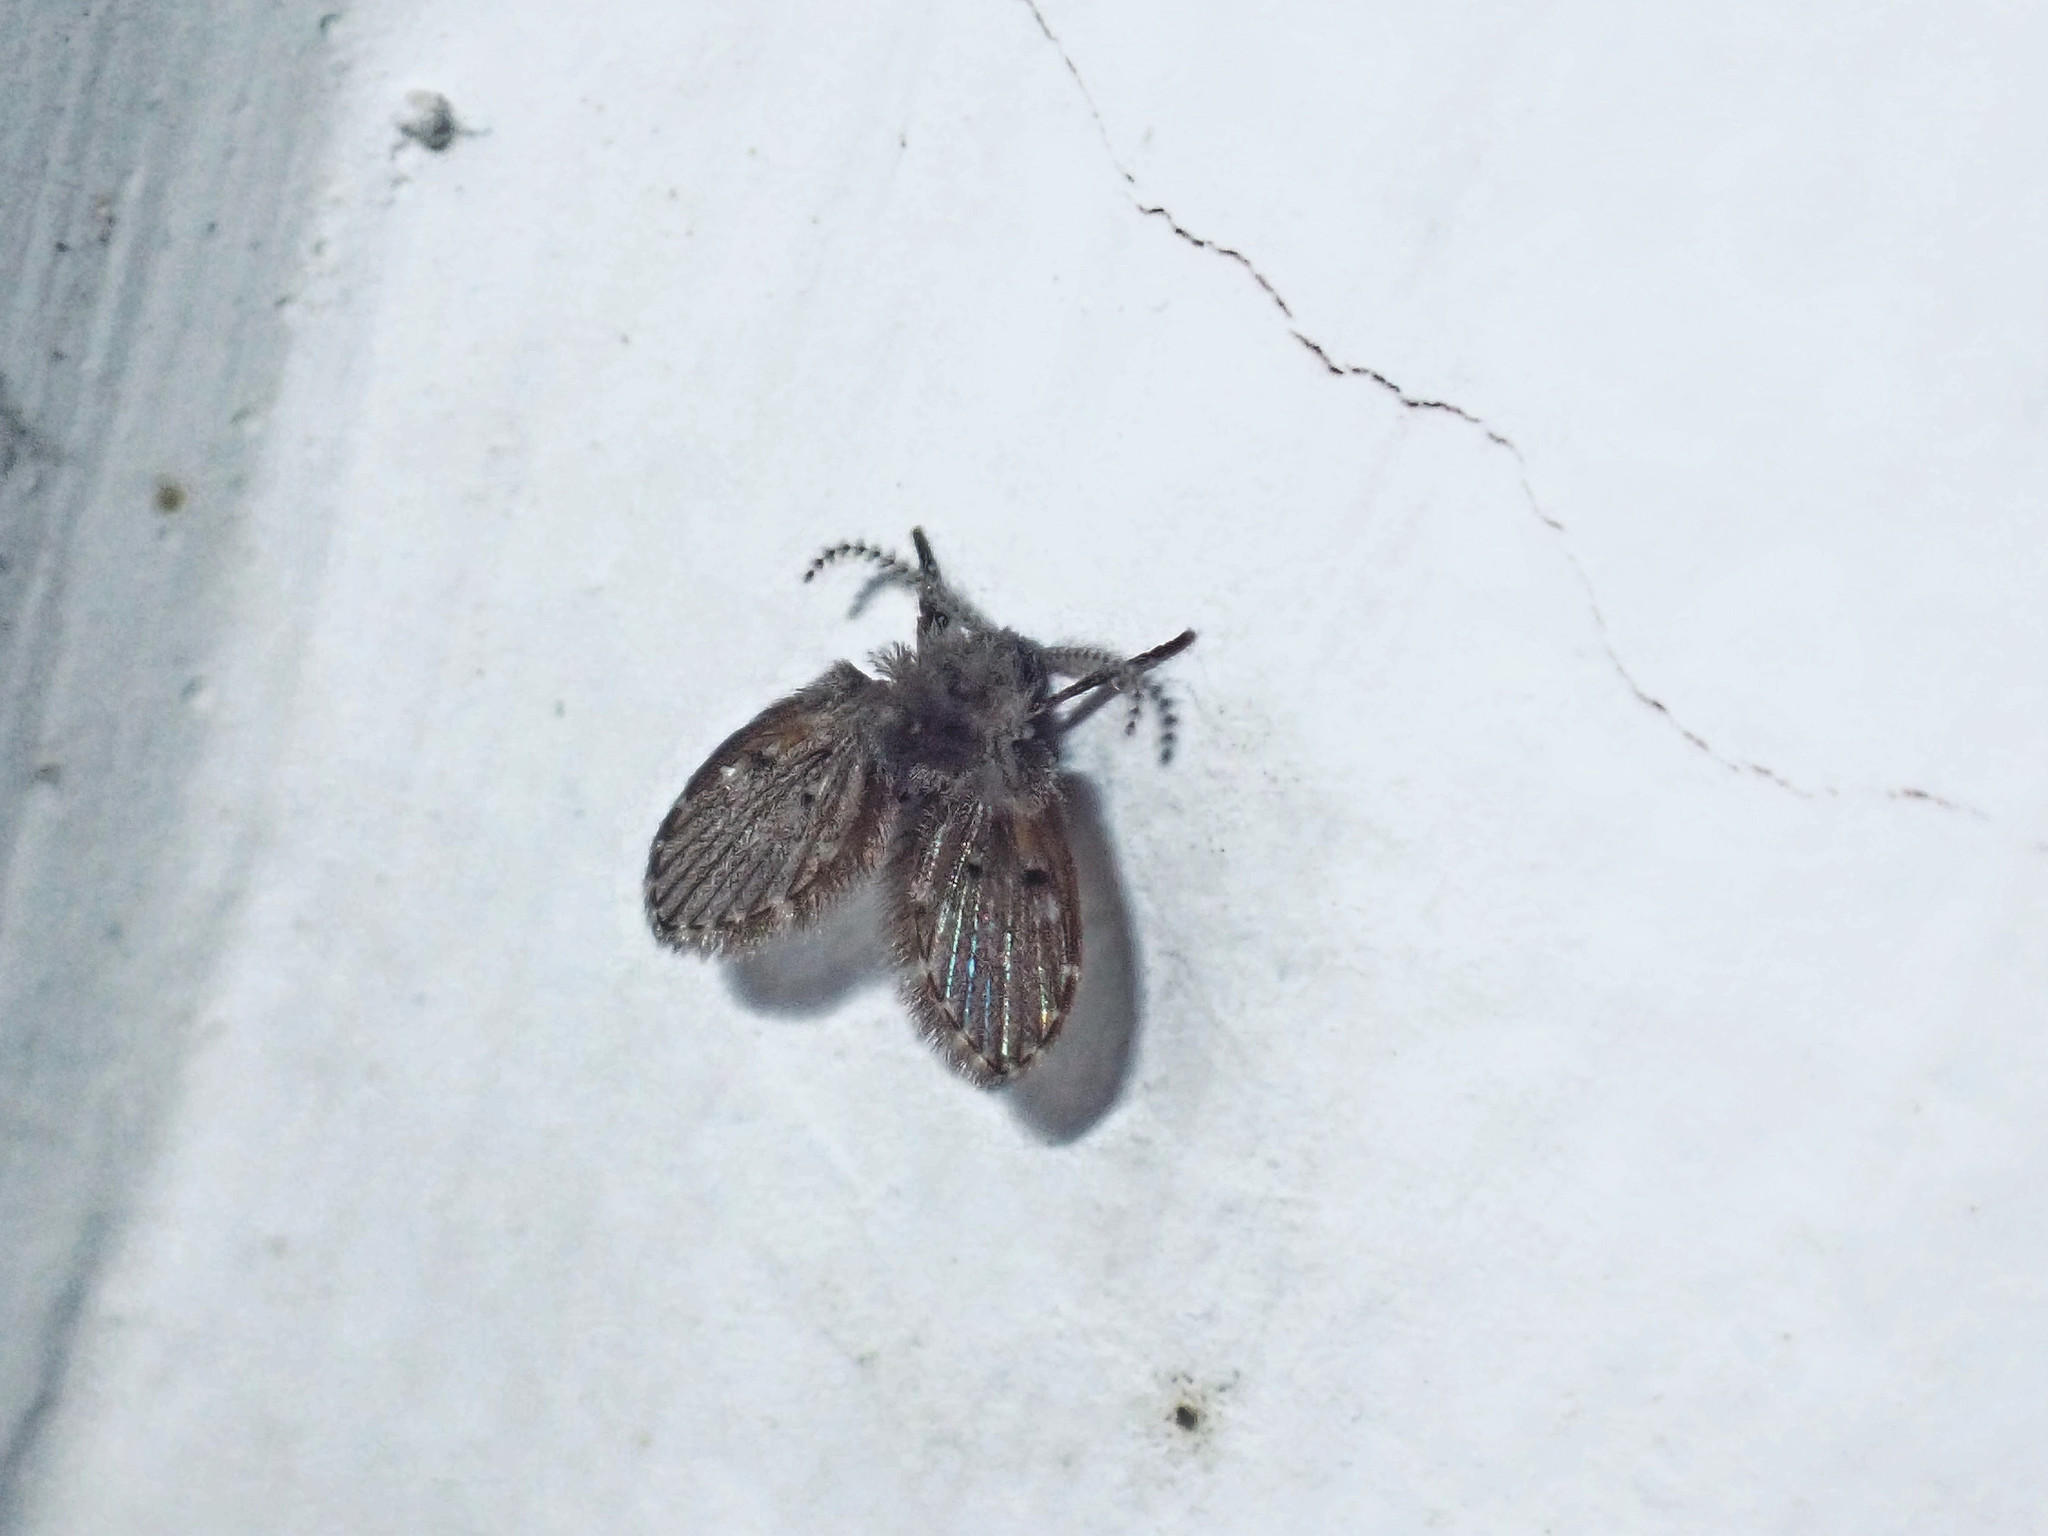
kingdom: Animalia
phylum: Arthropoda
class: Insecta
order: Diptera
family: Psychodidae
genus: Clogmia
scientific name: Clogmia albipunctatus
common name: White-spotted moth fly
